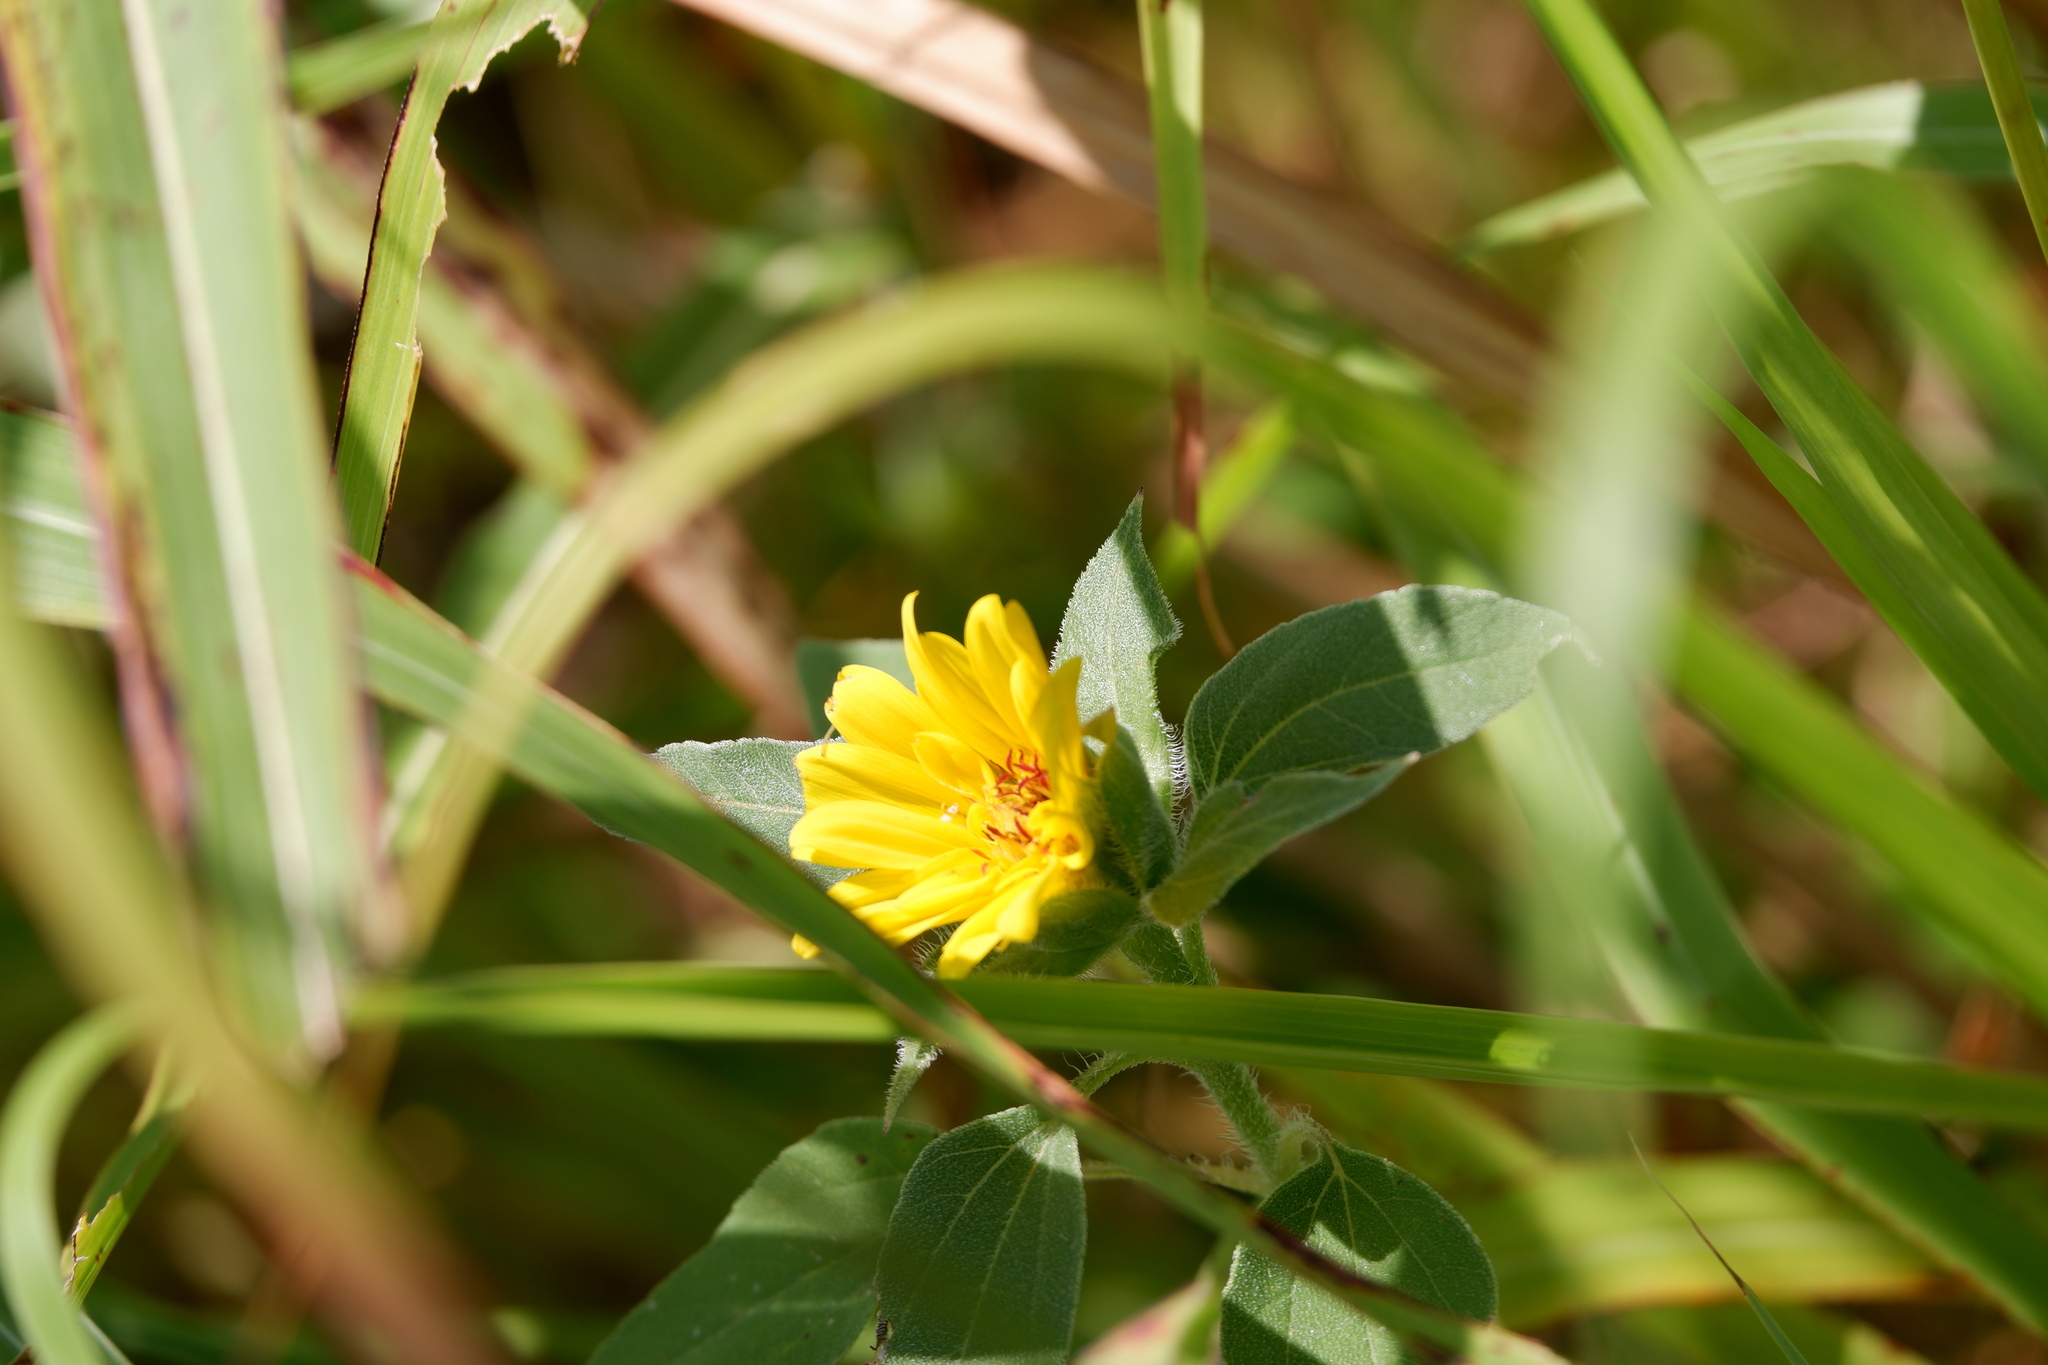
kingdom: Plantae
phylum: Tracheophyta
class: Magnoliopsida
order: Asterales
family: Asteraceae
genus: Helianthus
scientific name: Helianthus annuus
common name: Sunflower
